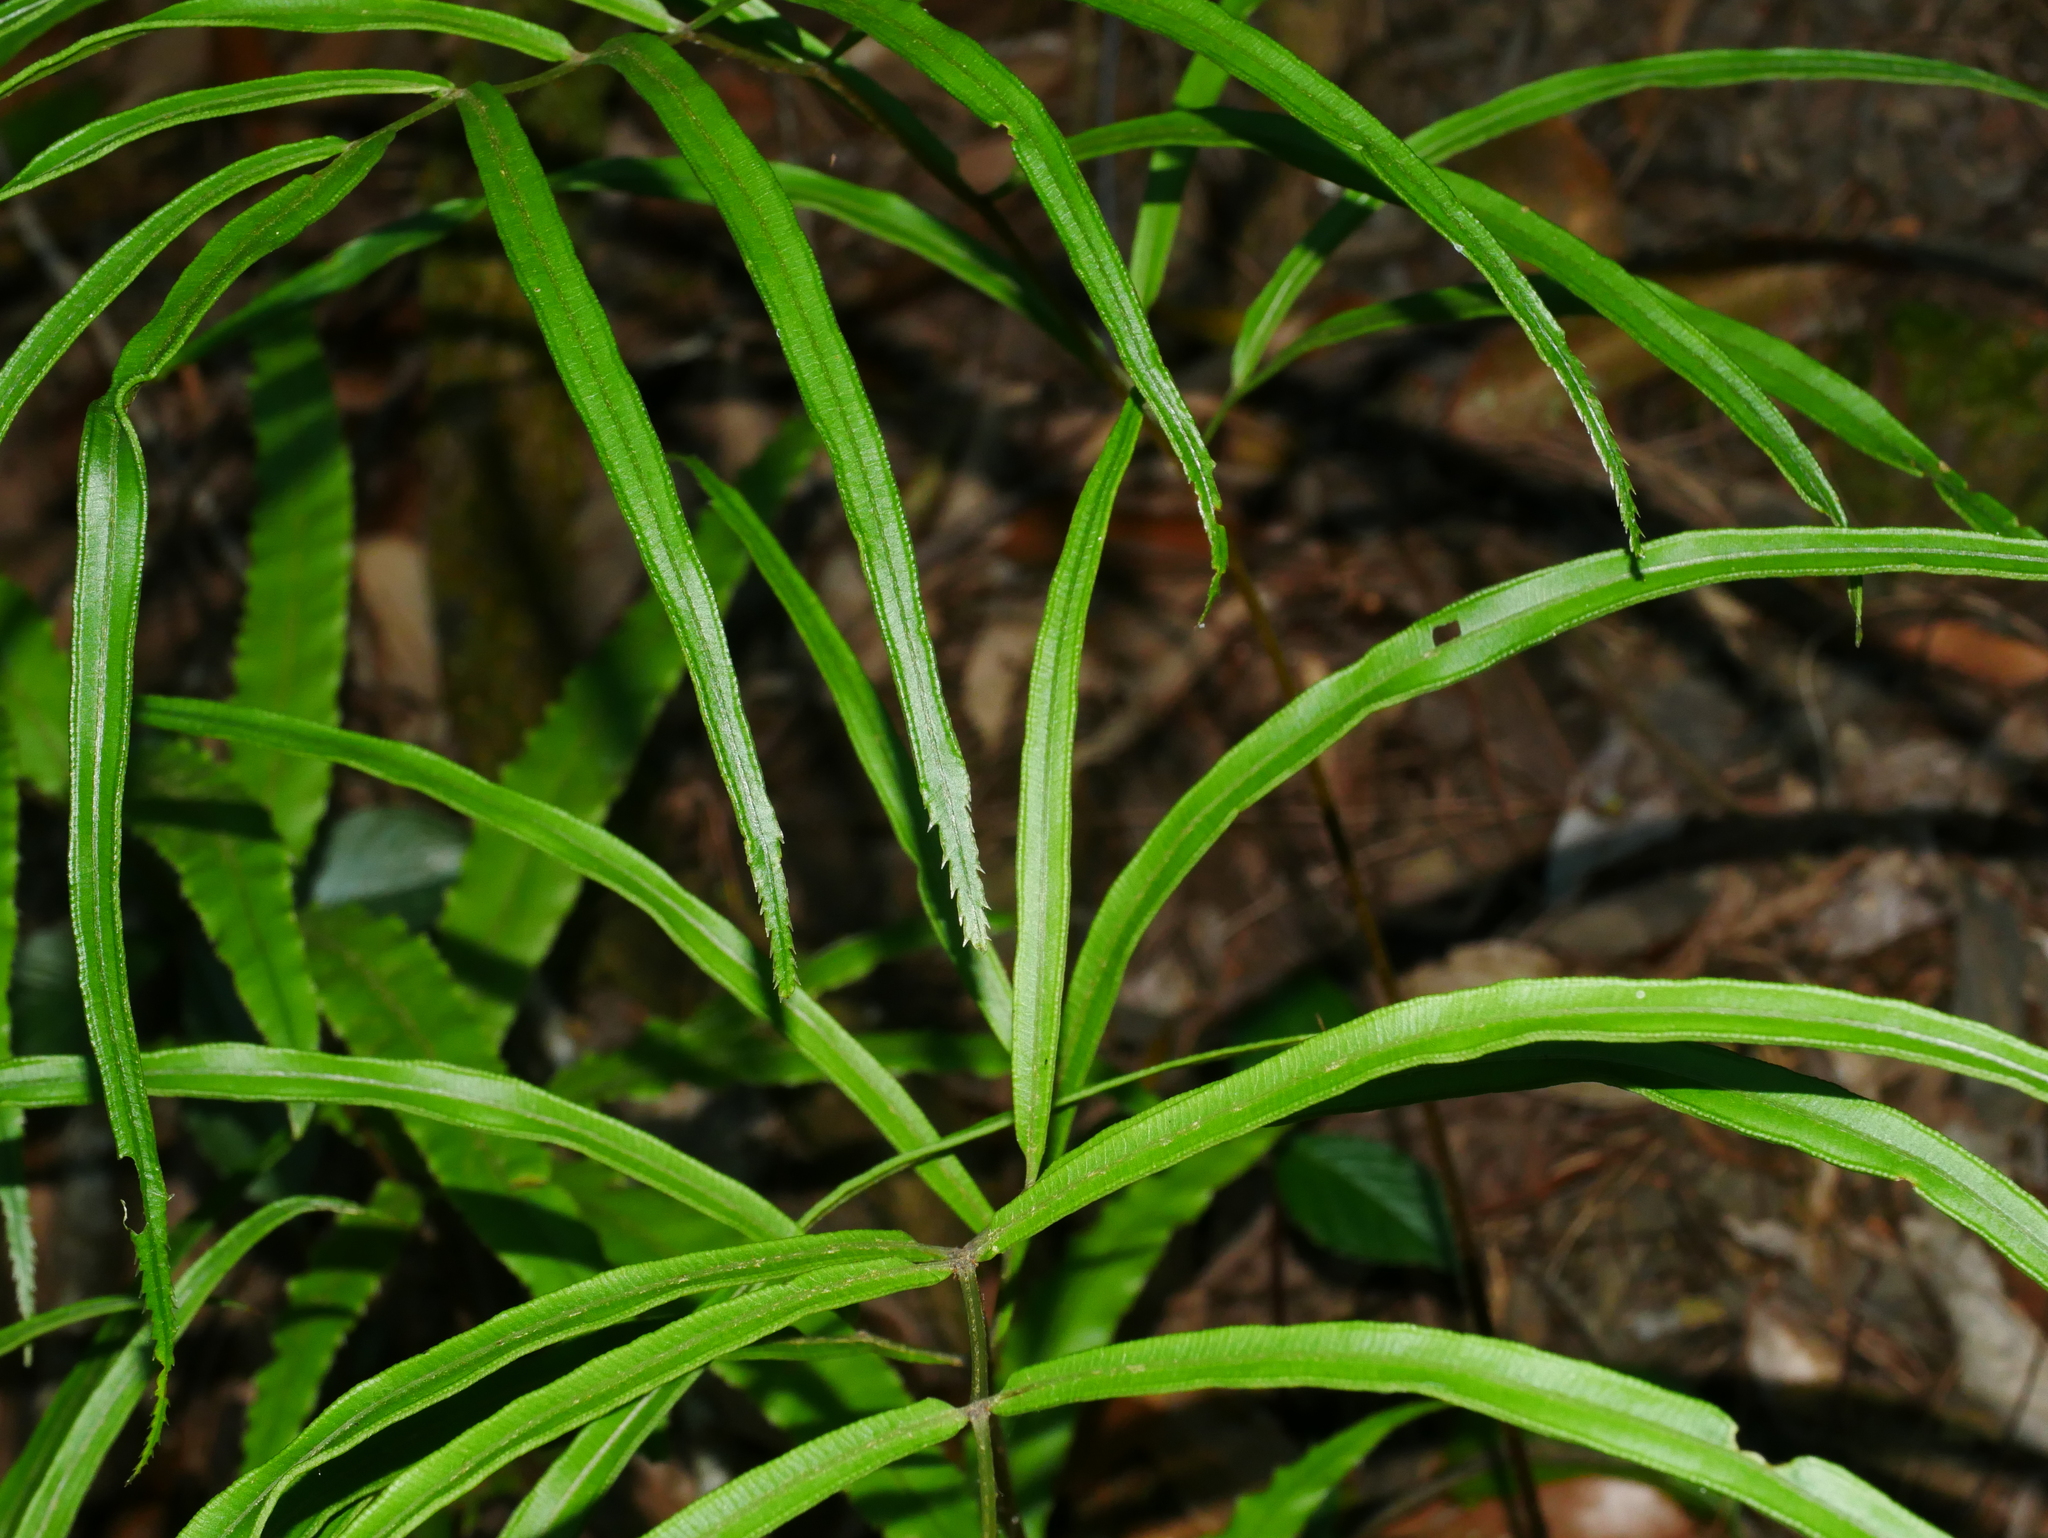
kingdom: Plantae
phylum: Tracheophyta
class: Polypodiopsida
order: Polypodiales
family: Pteridaceae
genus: Pteris
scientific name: Pteris cretica
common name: Ribbon fern
